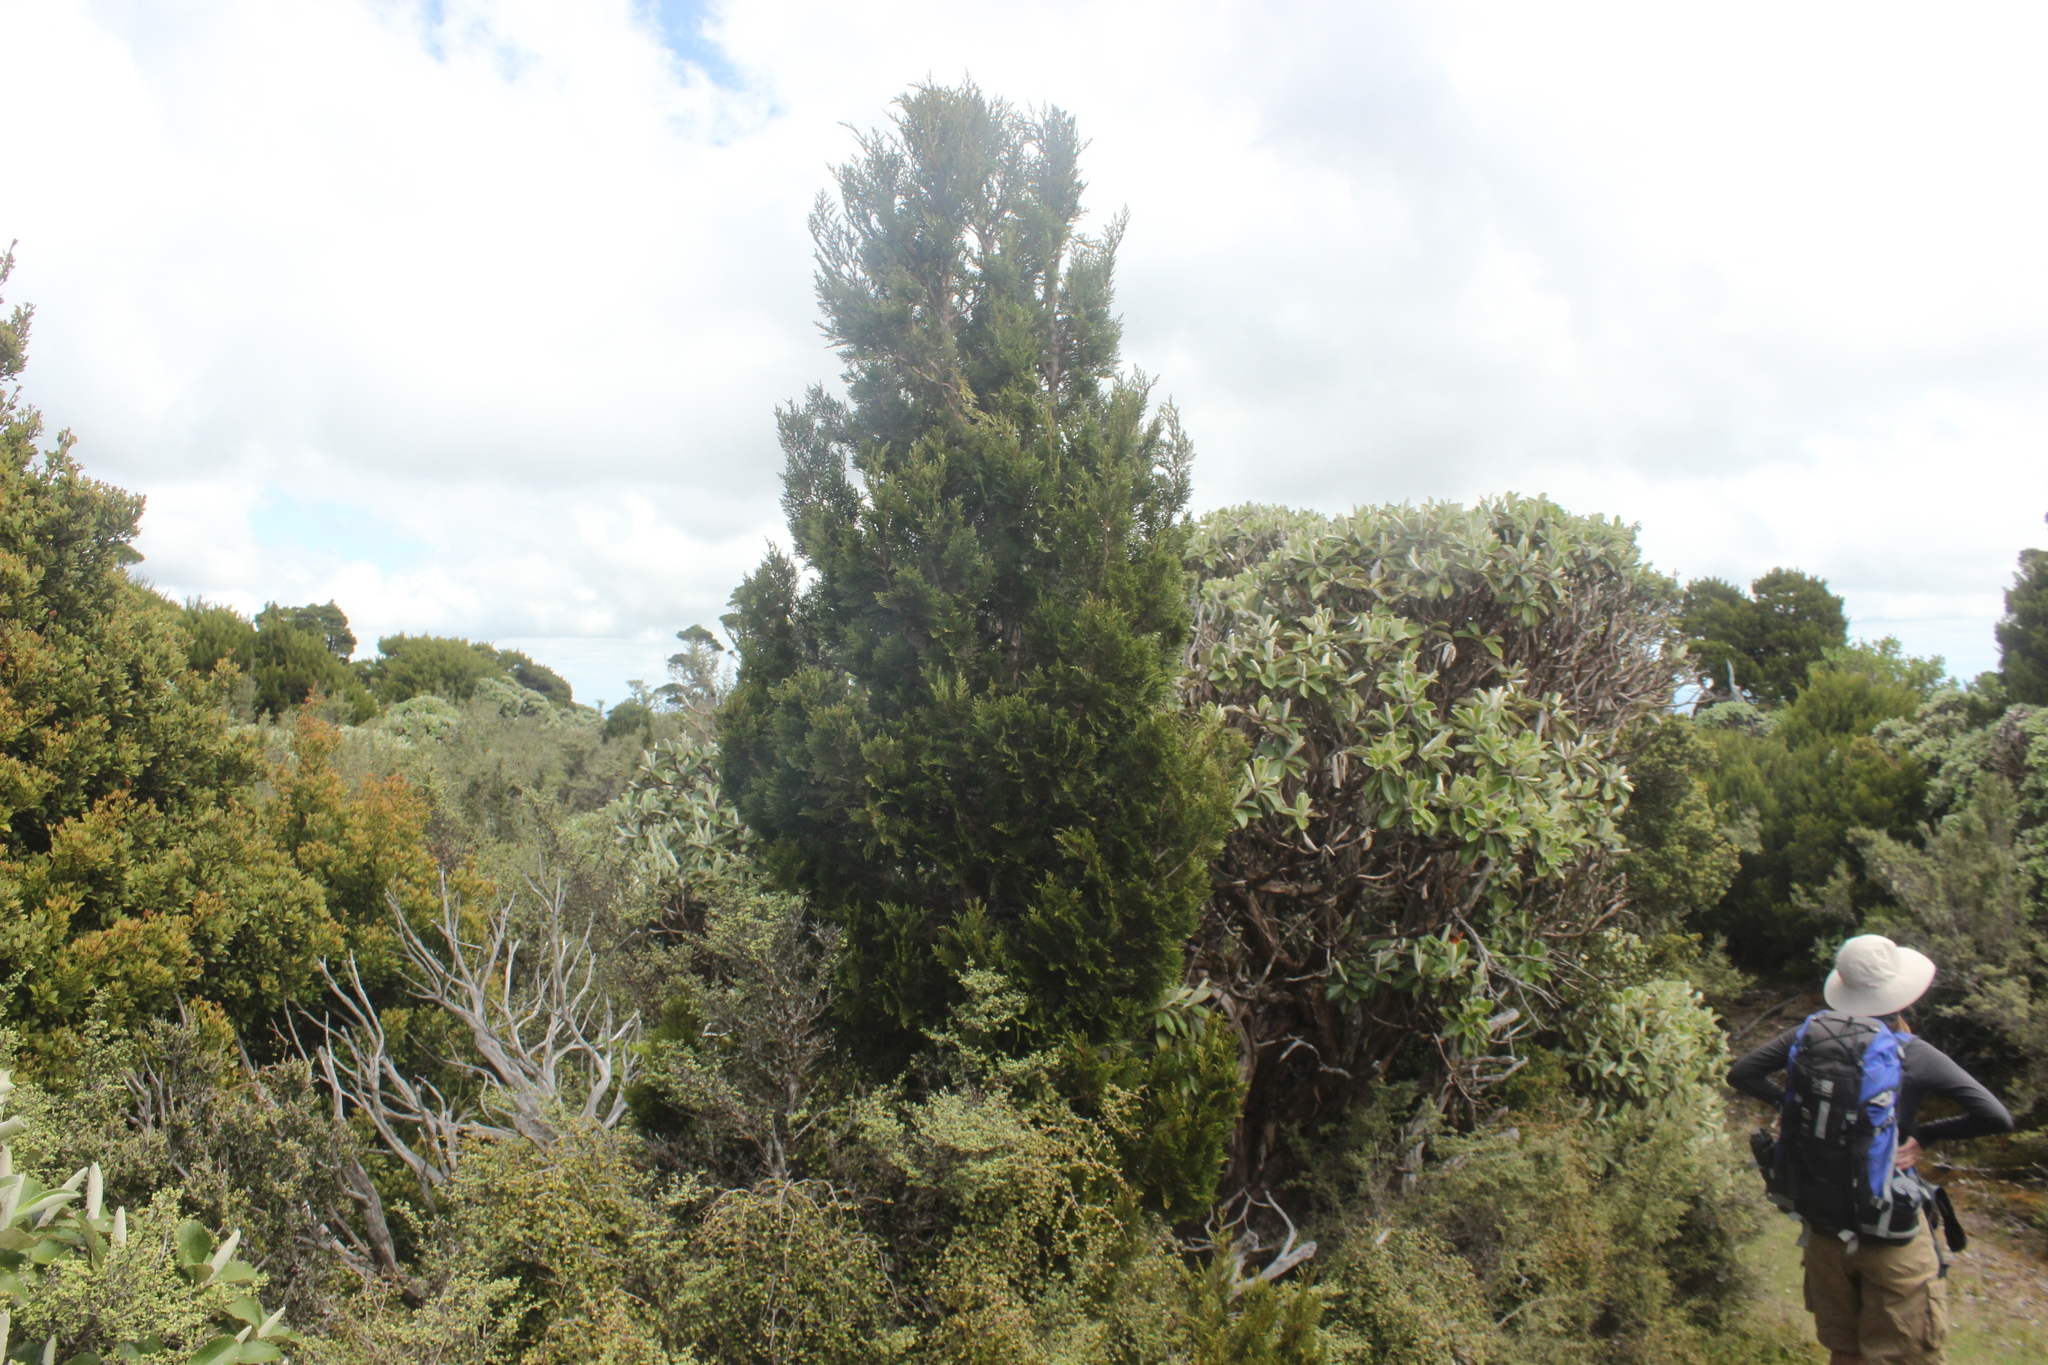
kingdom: Plantae
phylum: Tracheophyta
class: Pinopsida
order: Pinales
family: Cupressaceae
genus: Libocedrus
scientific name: Libocedrus bidwillii
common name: Cedar
